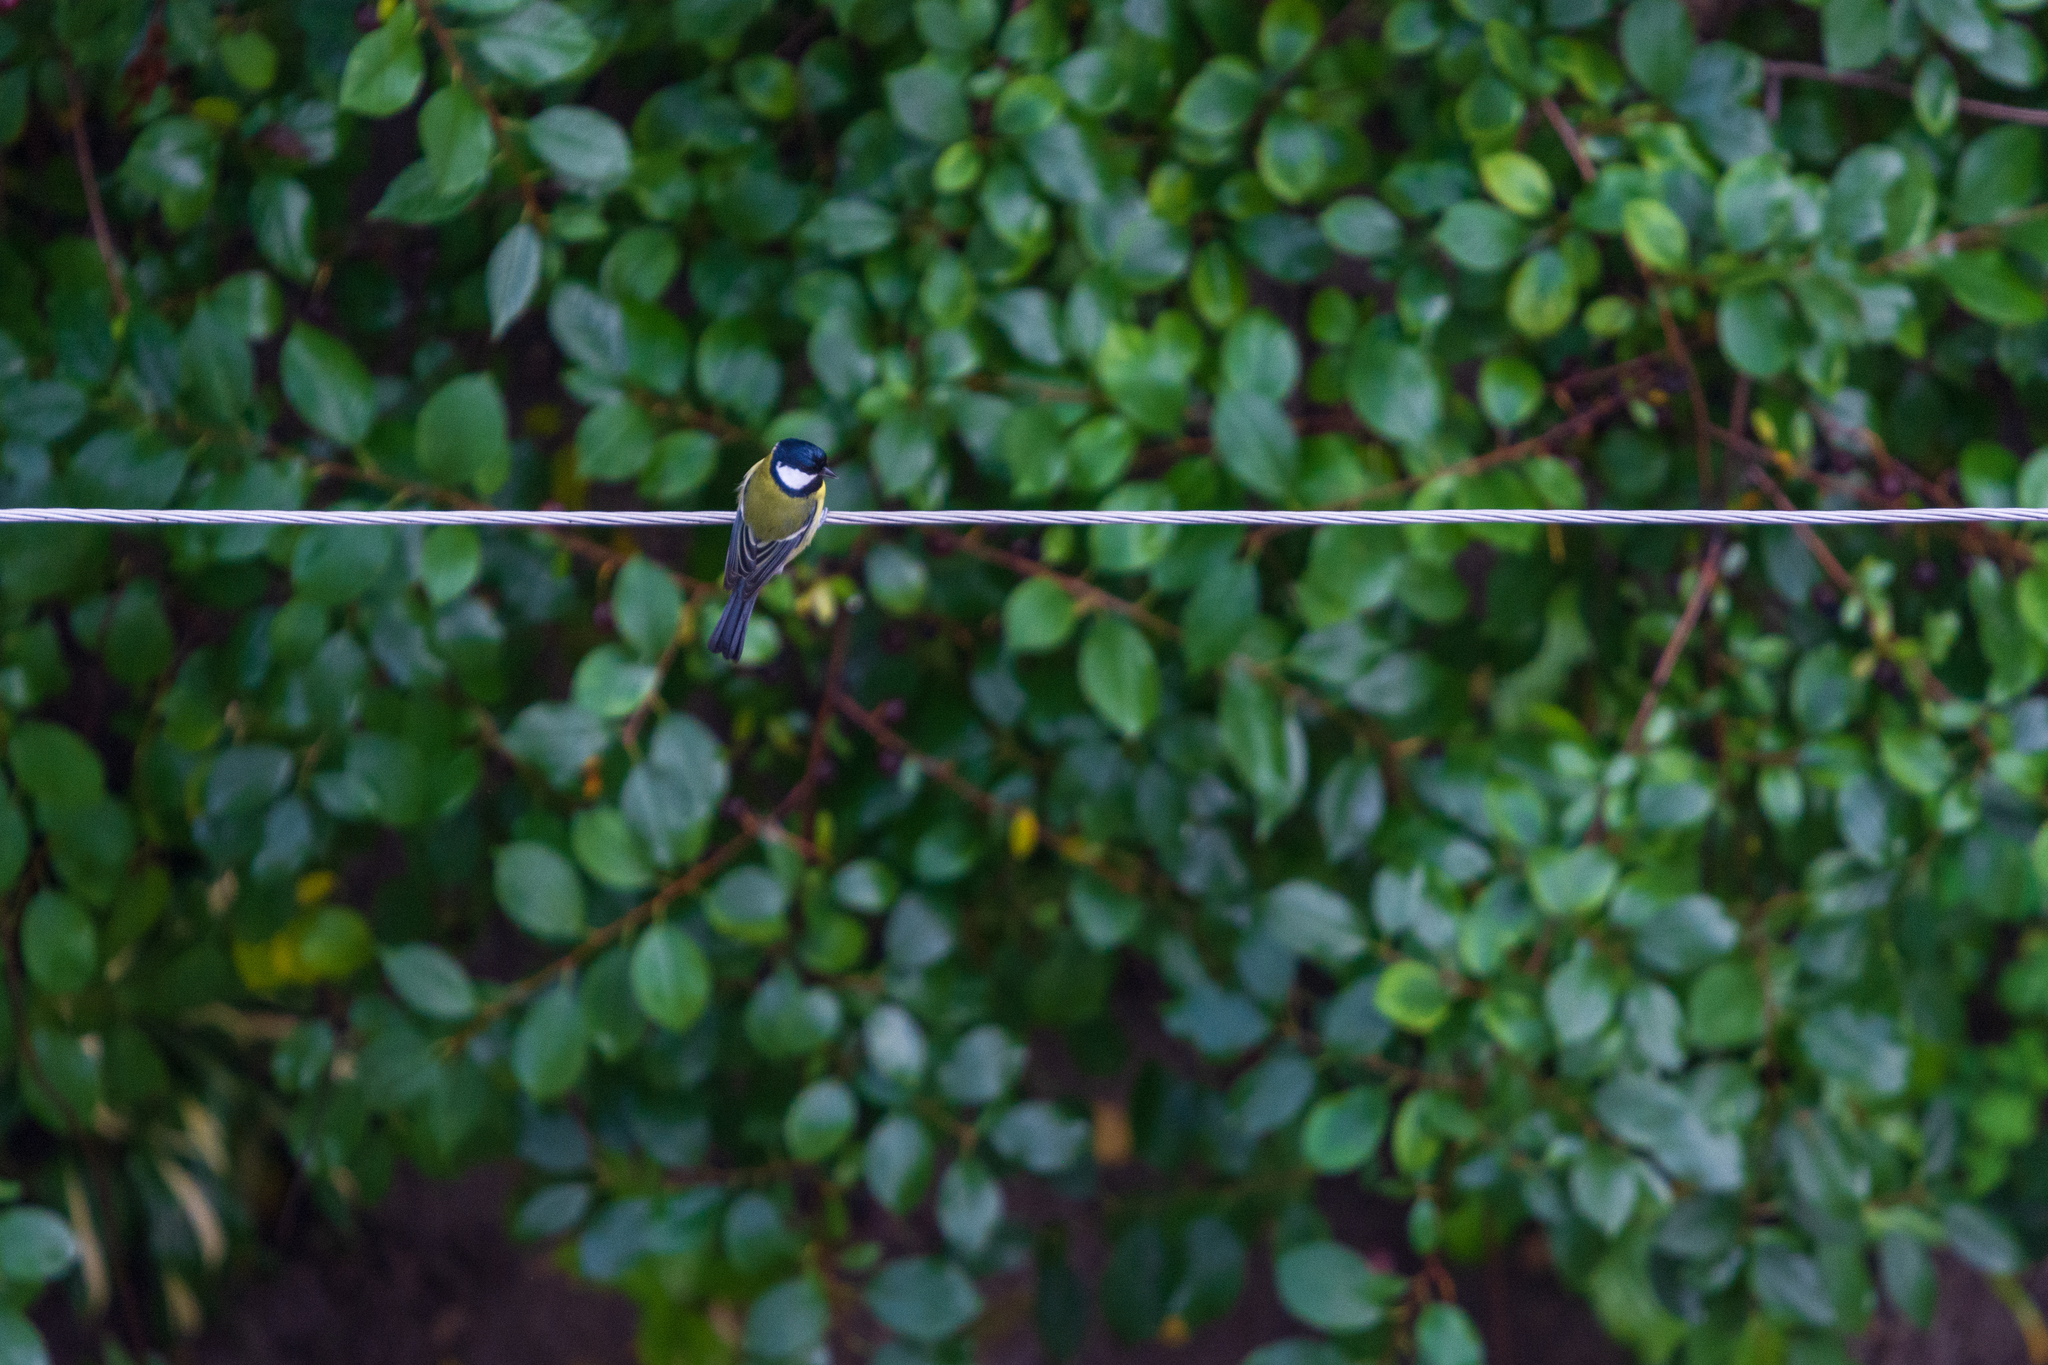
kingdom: Animalia
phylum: Chordata
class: Aves
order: Passeriformes
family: Paridae
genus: Parus
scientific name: Parus major
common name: Great tit
